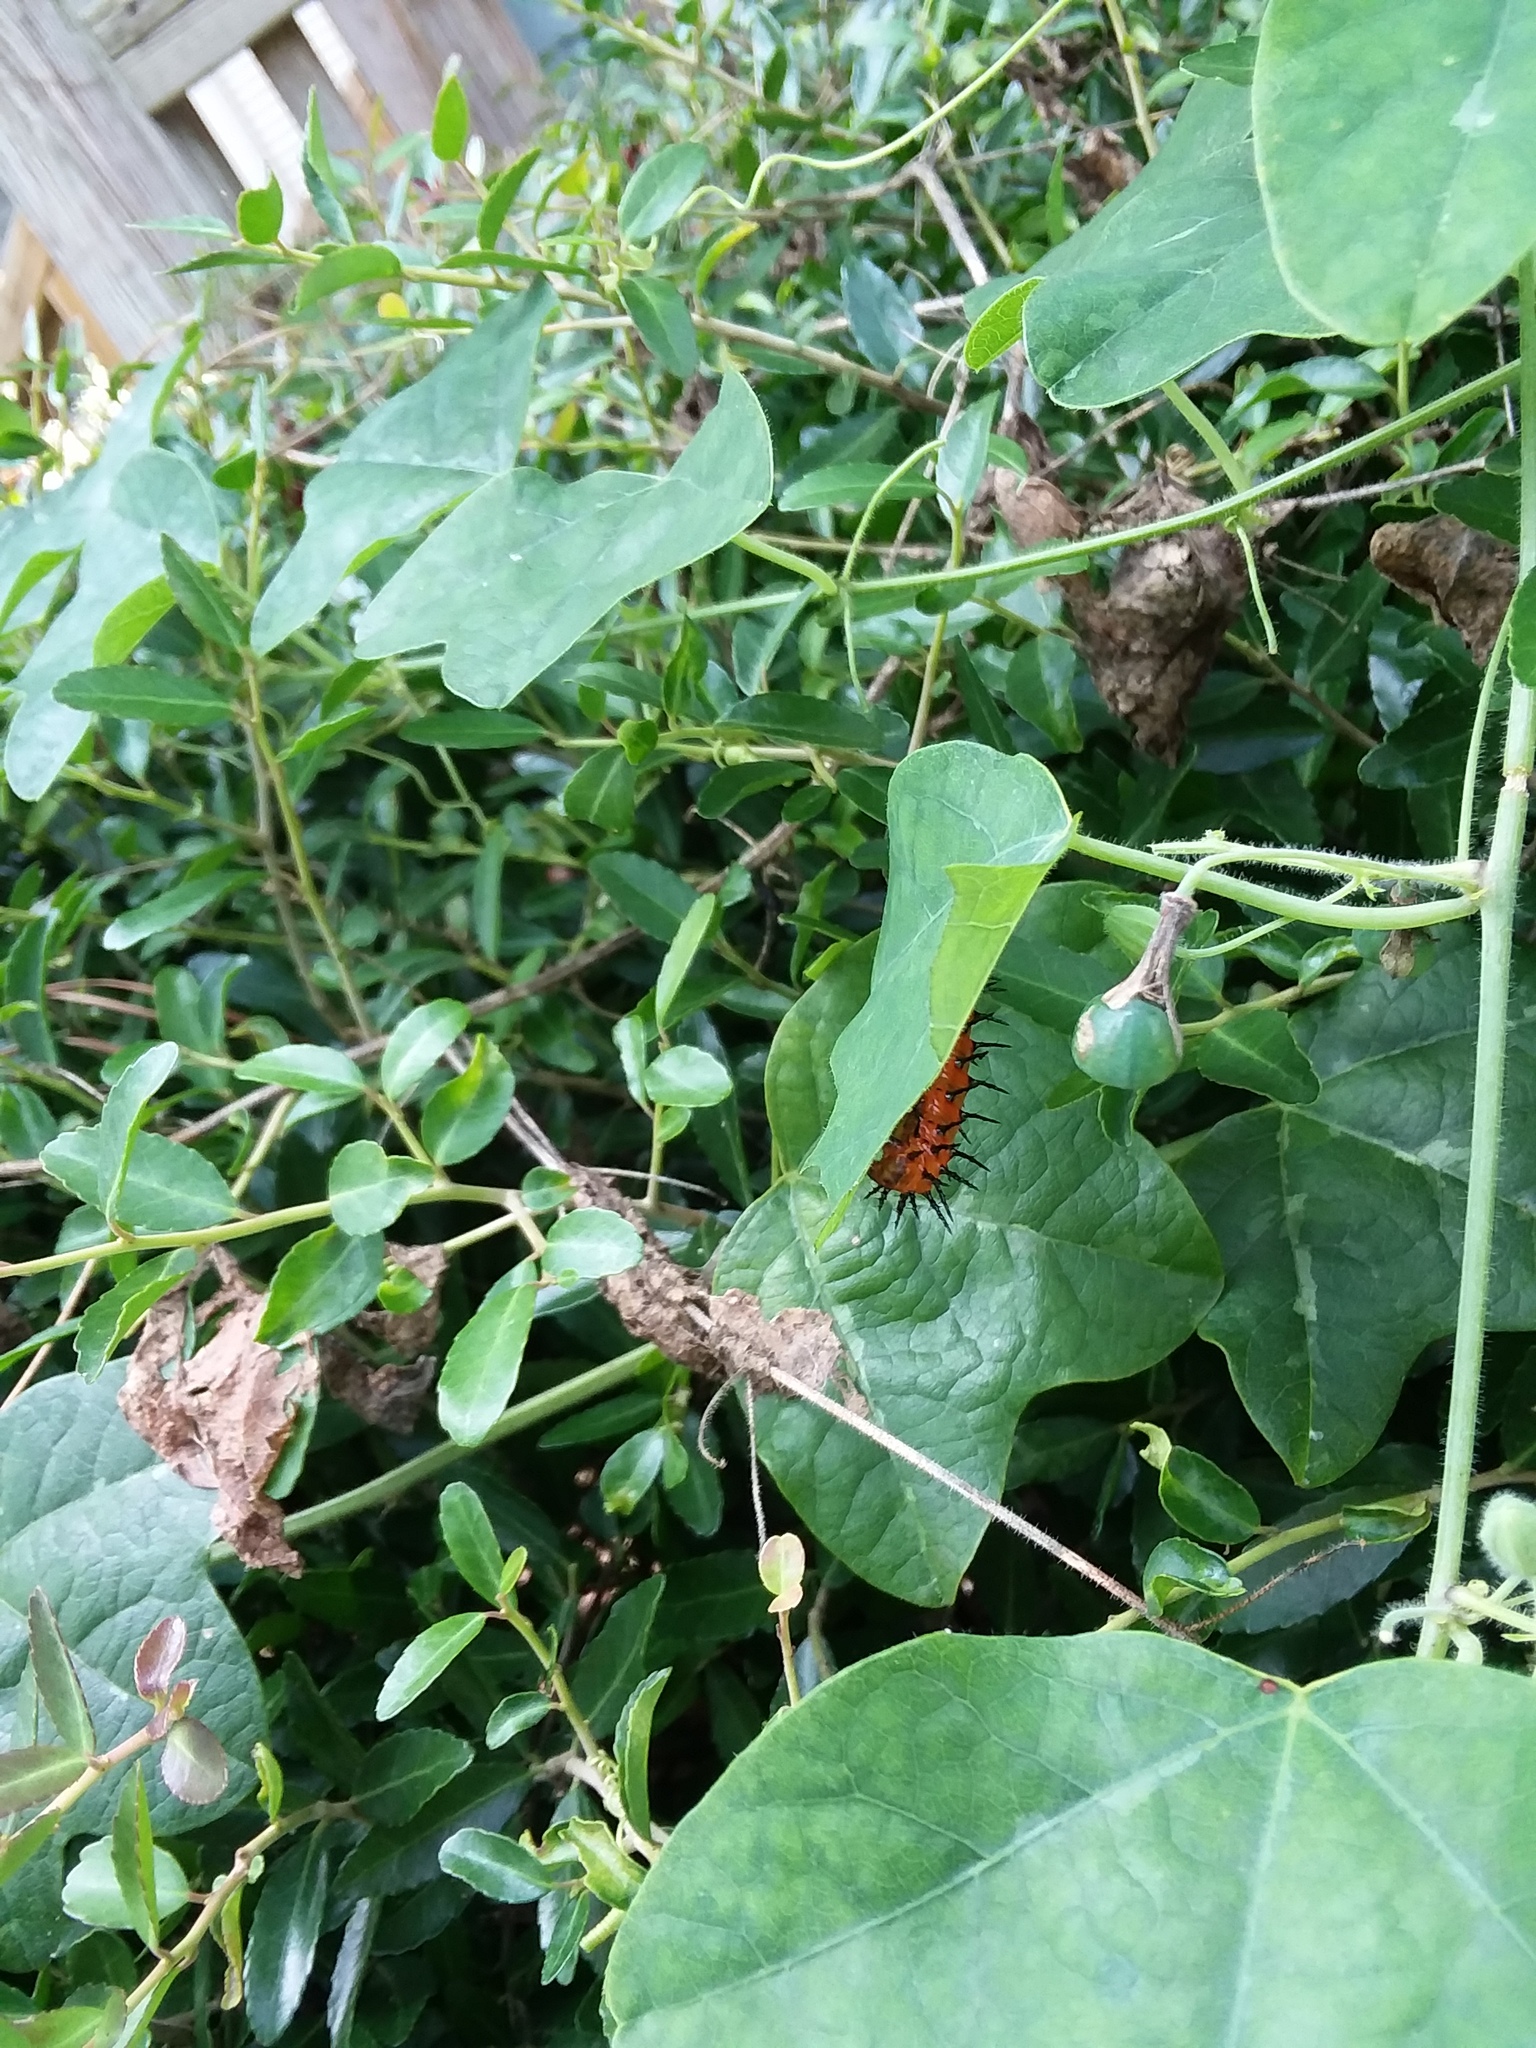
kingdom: Animalia
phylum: Arthropoda
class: Insecta
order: Lepidoptera
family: Nymphalidae
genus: Dione
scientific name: Dione vanillae
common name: Gulf fritillary
